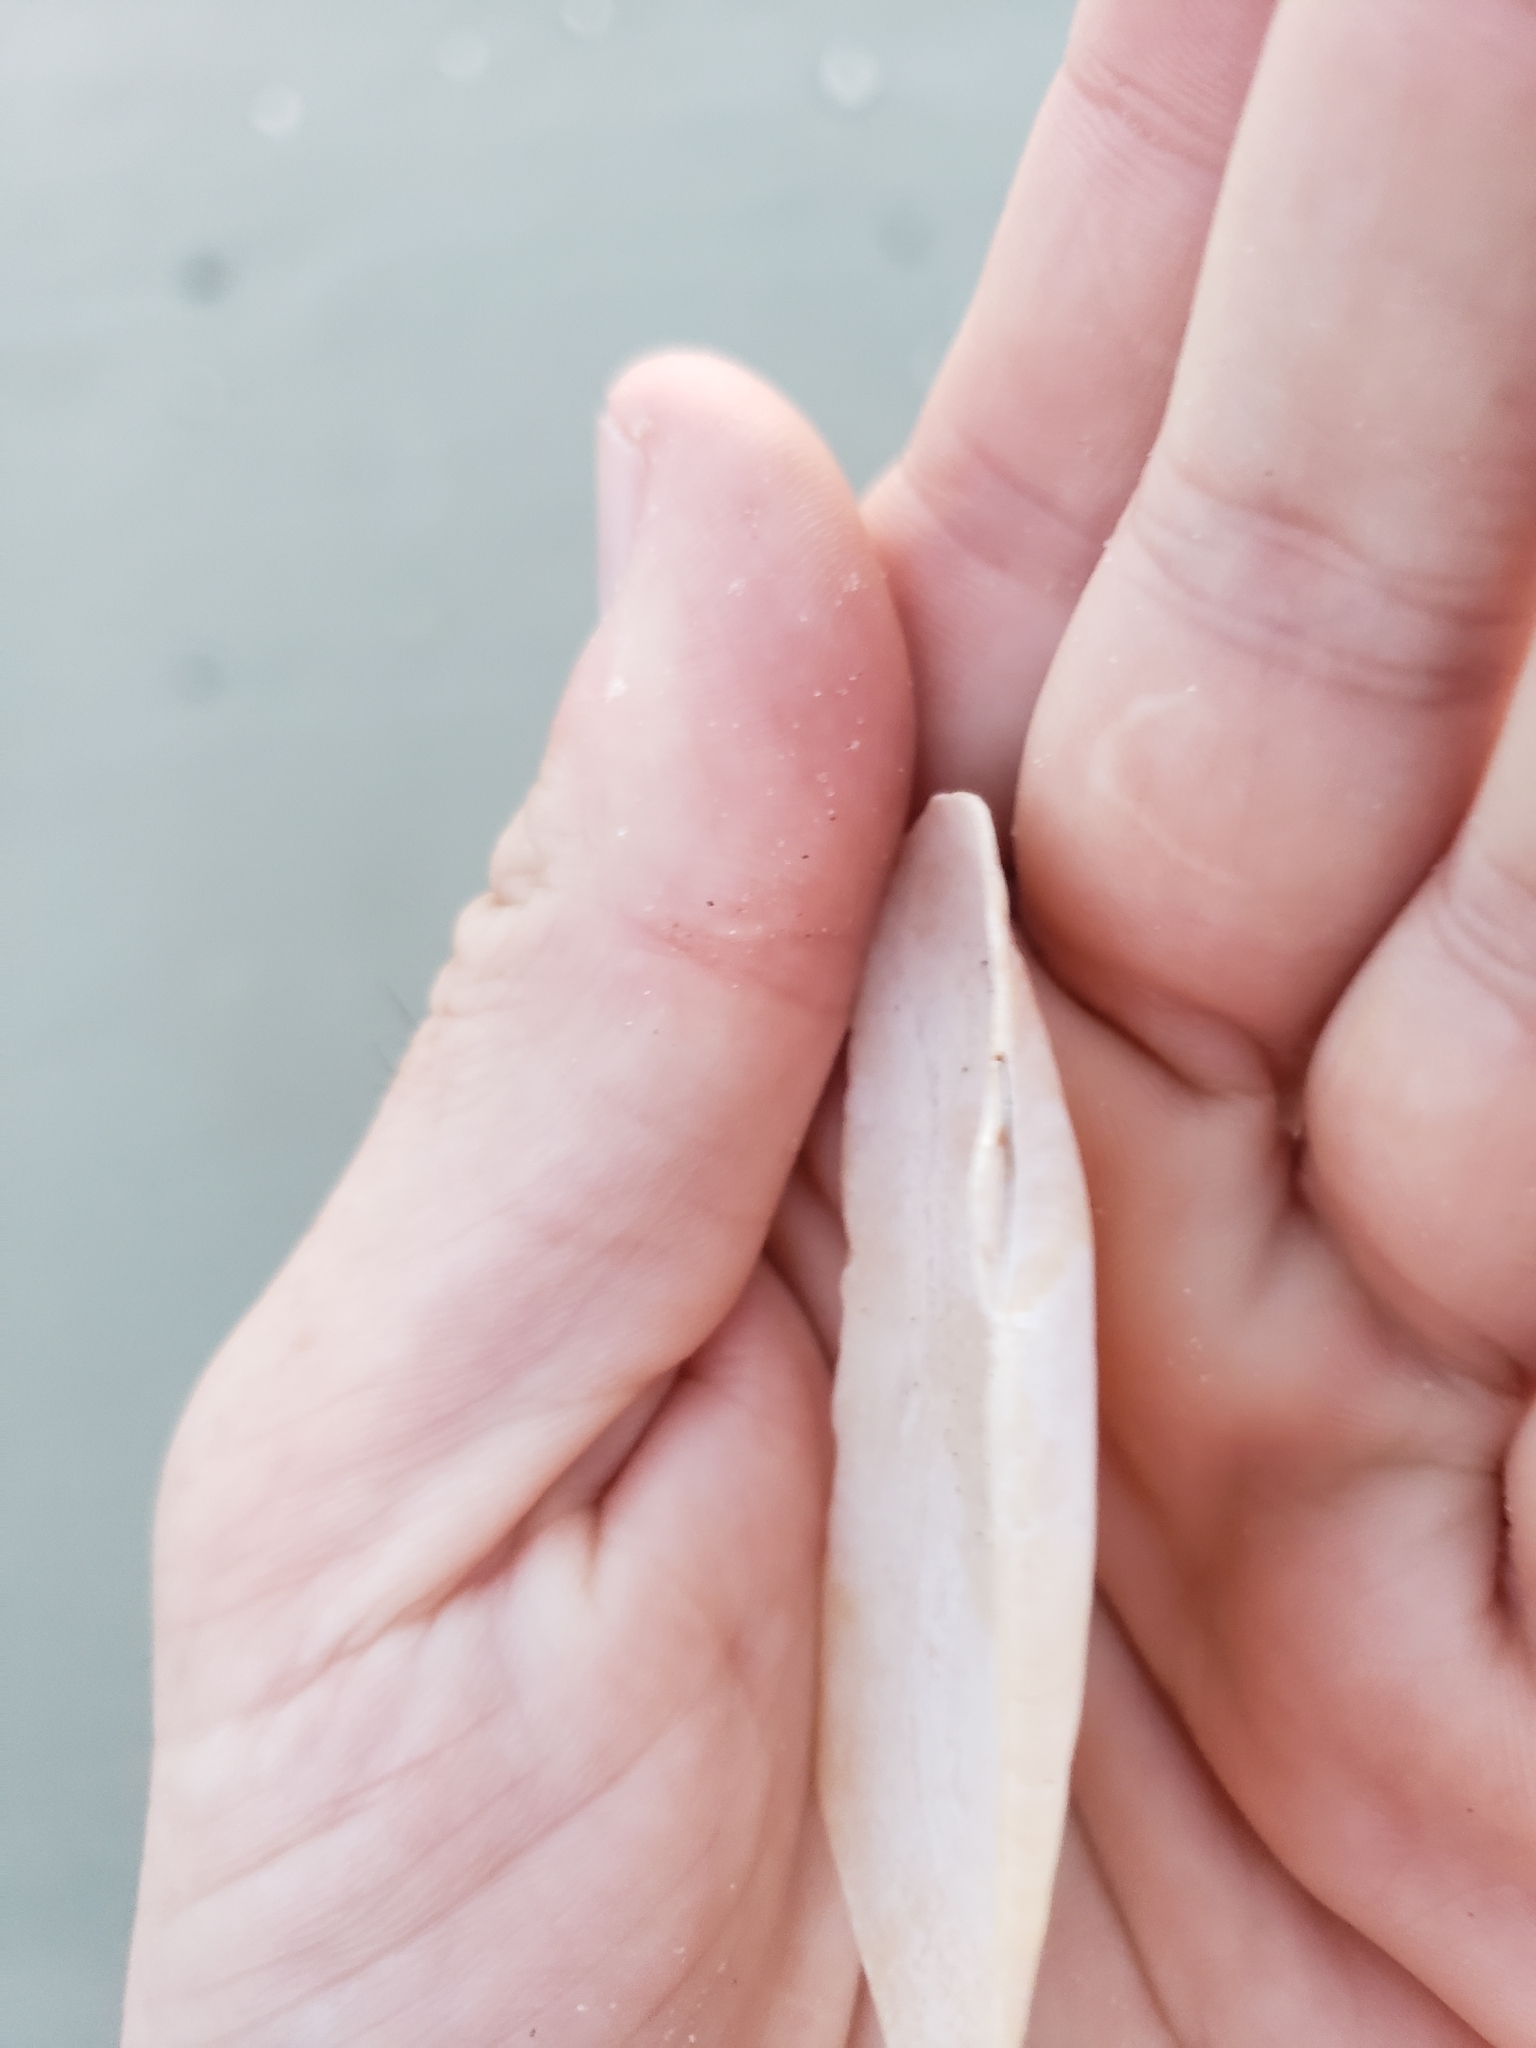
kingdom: Animalia
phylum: Mollusca
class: Bivalvia
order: Cardiida
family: Solecurtidae
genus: Tagelus
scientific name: Tagelus plebeius
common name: Stout tagelus
